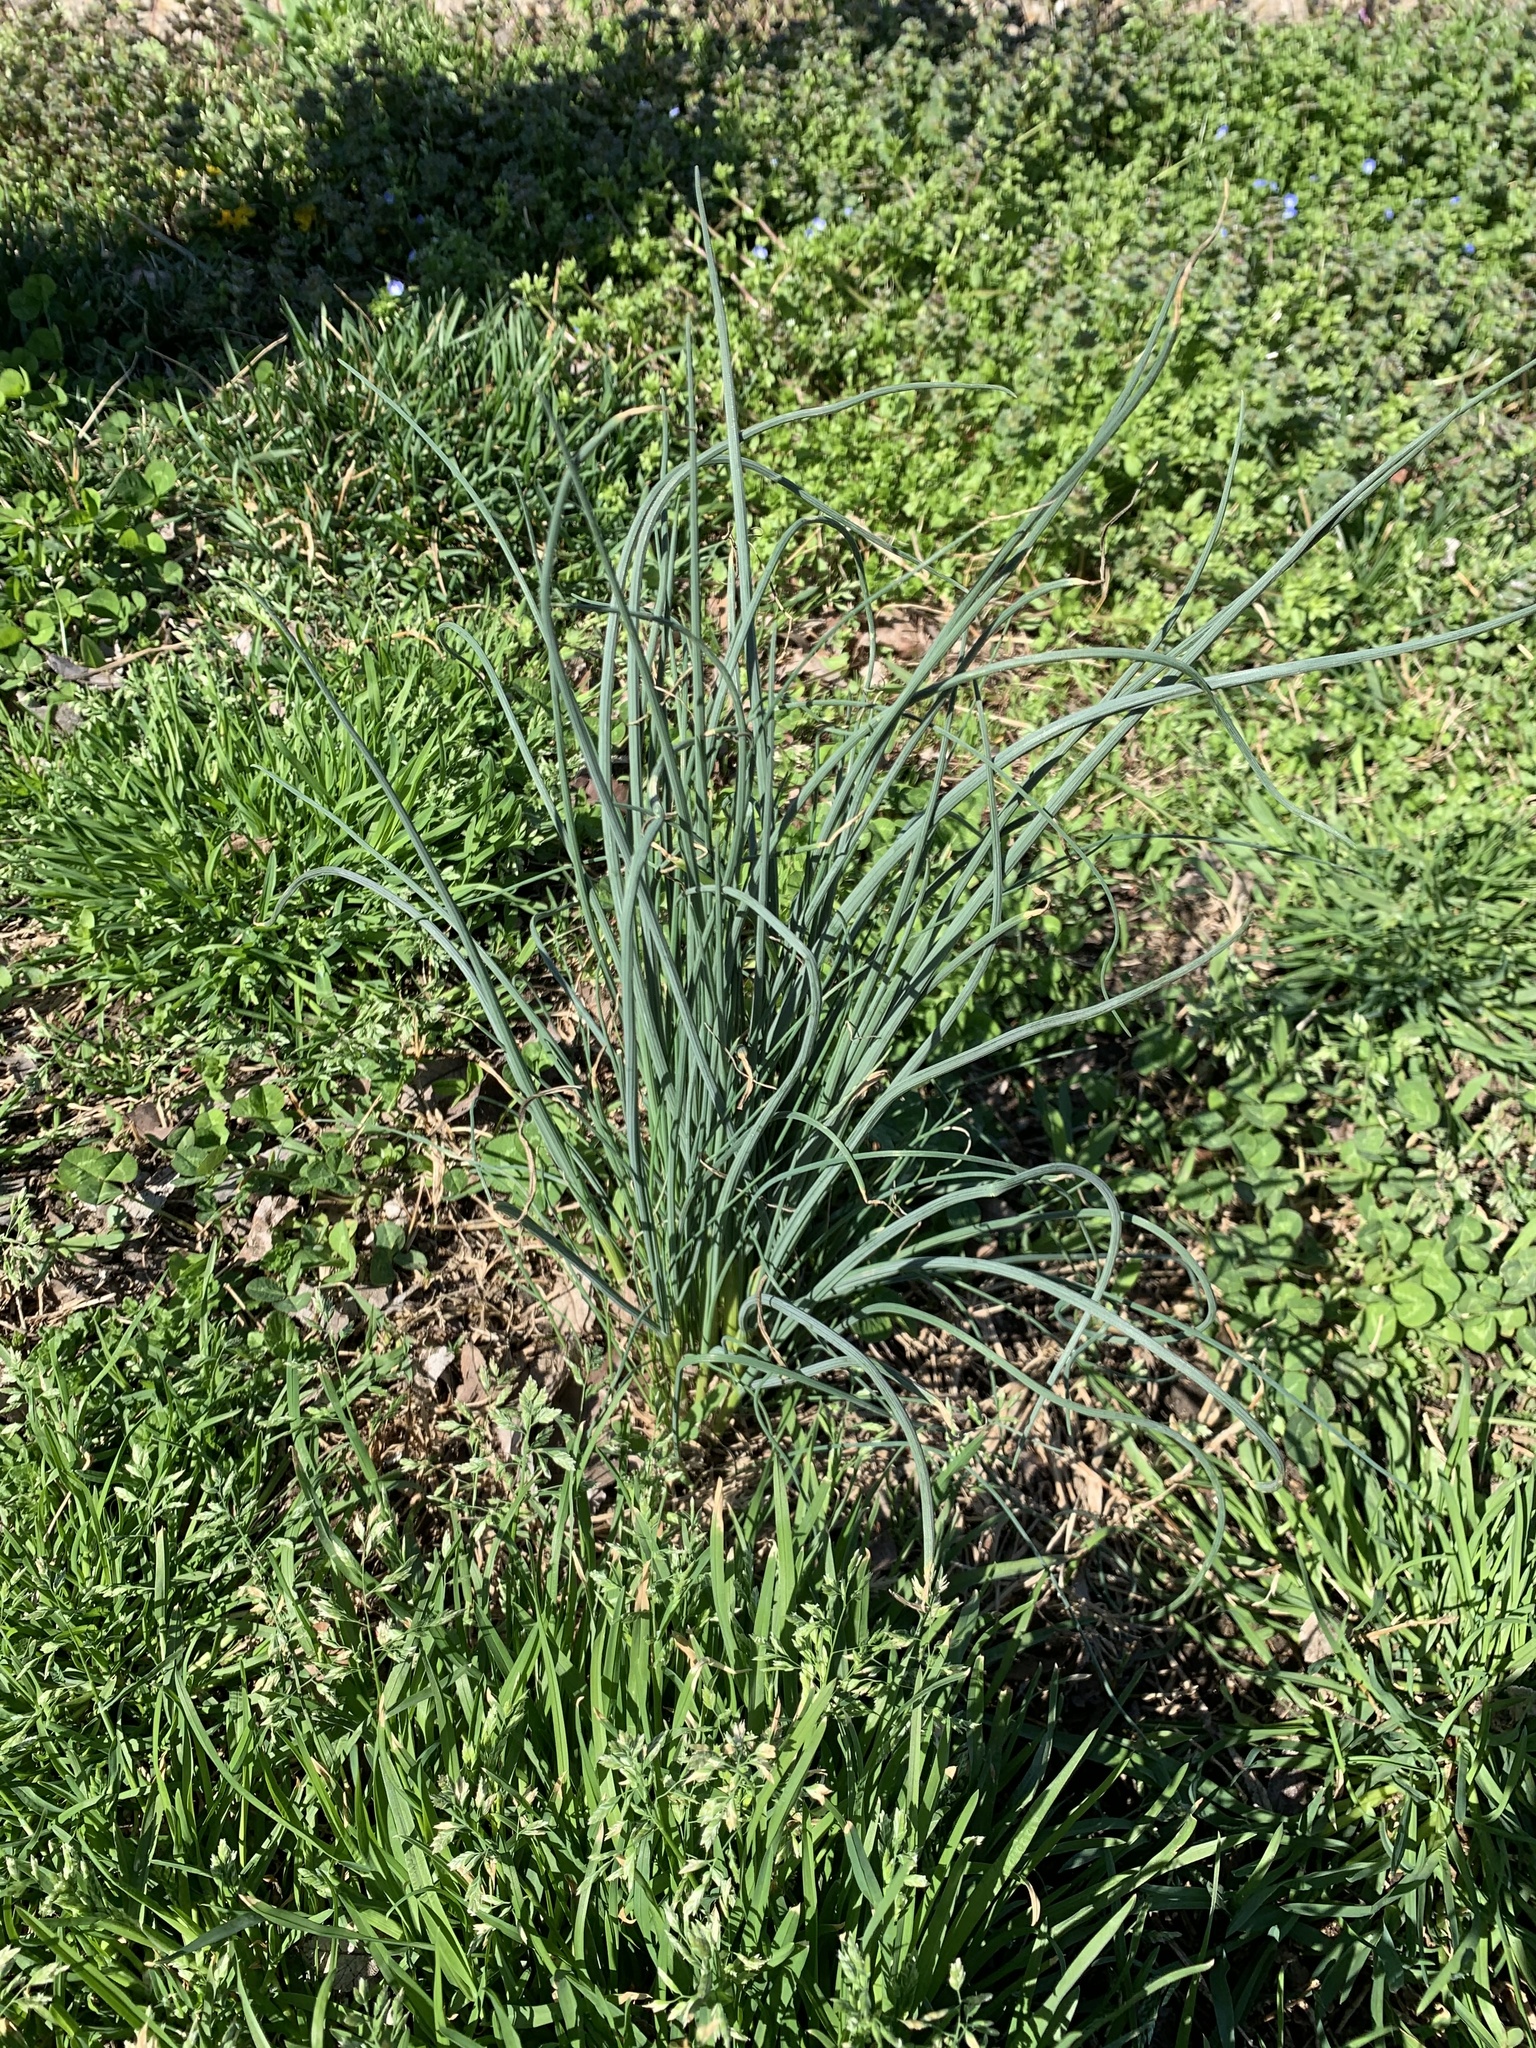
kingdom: Plantae
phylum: Tracheophyta
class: Liliopsida
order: Asparagales
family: Amaryllidaceae
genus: Allium
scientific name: Allium vineale
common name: Crow garlic
